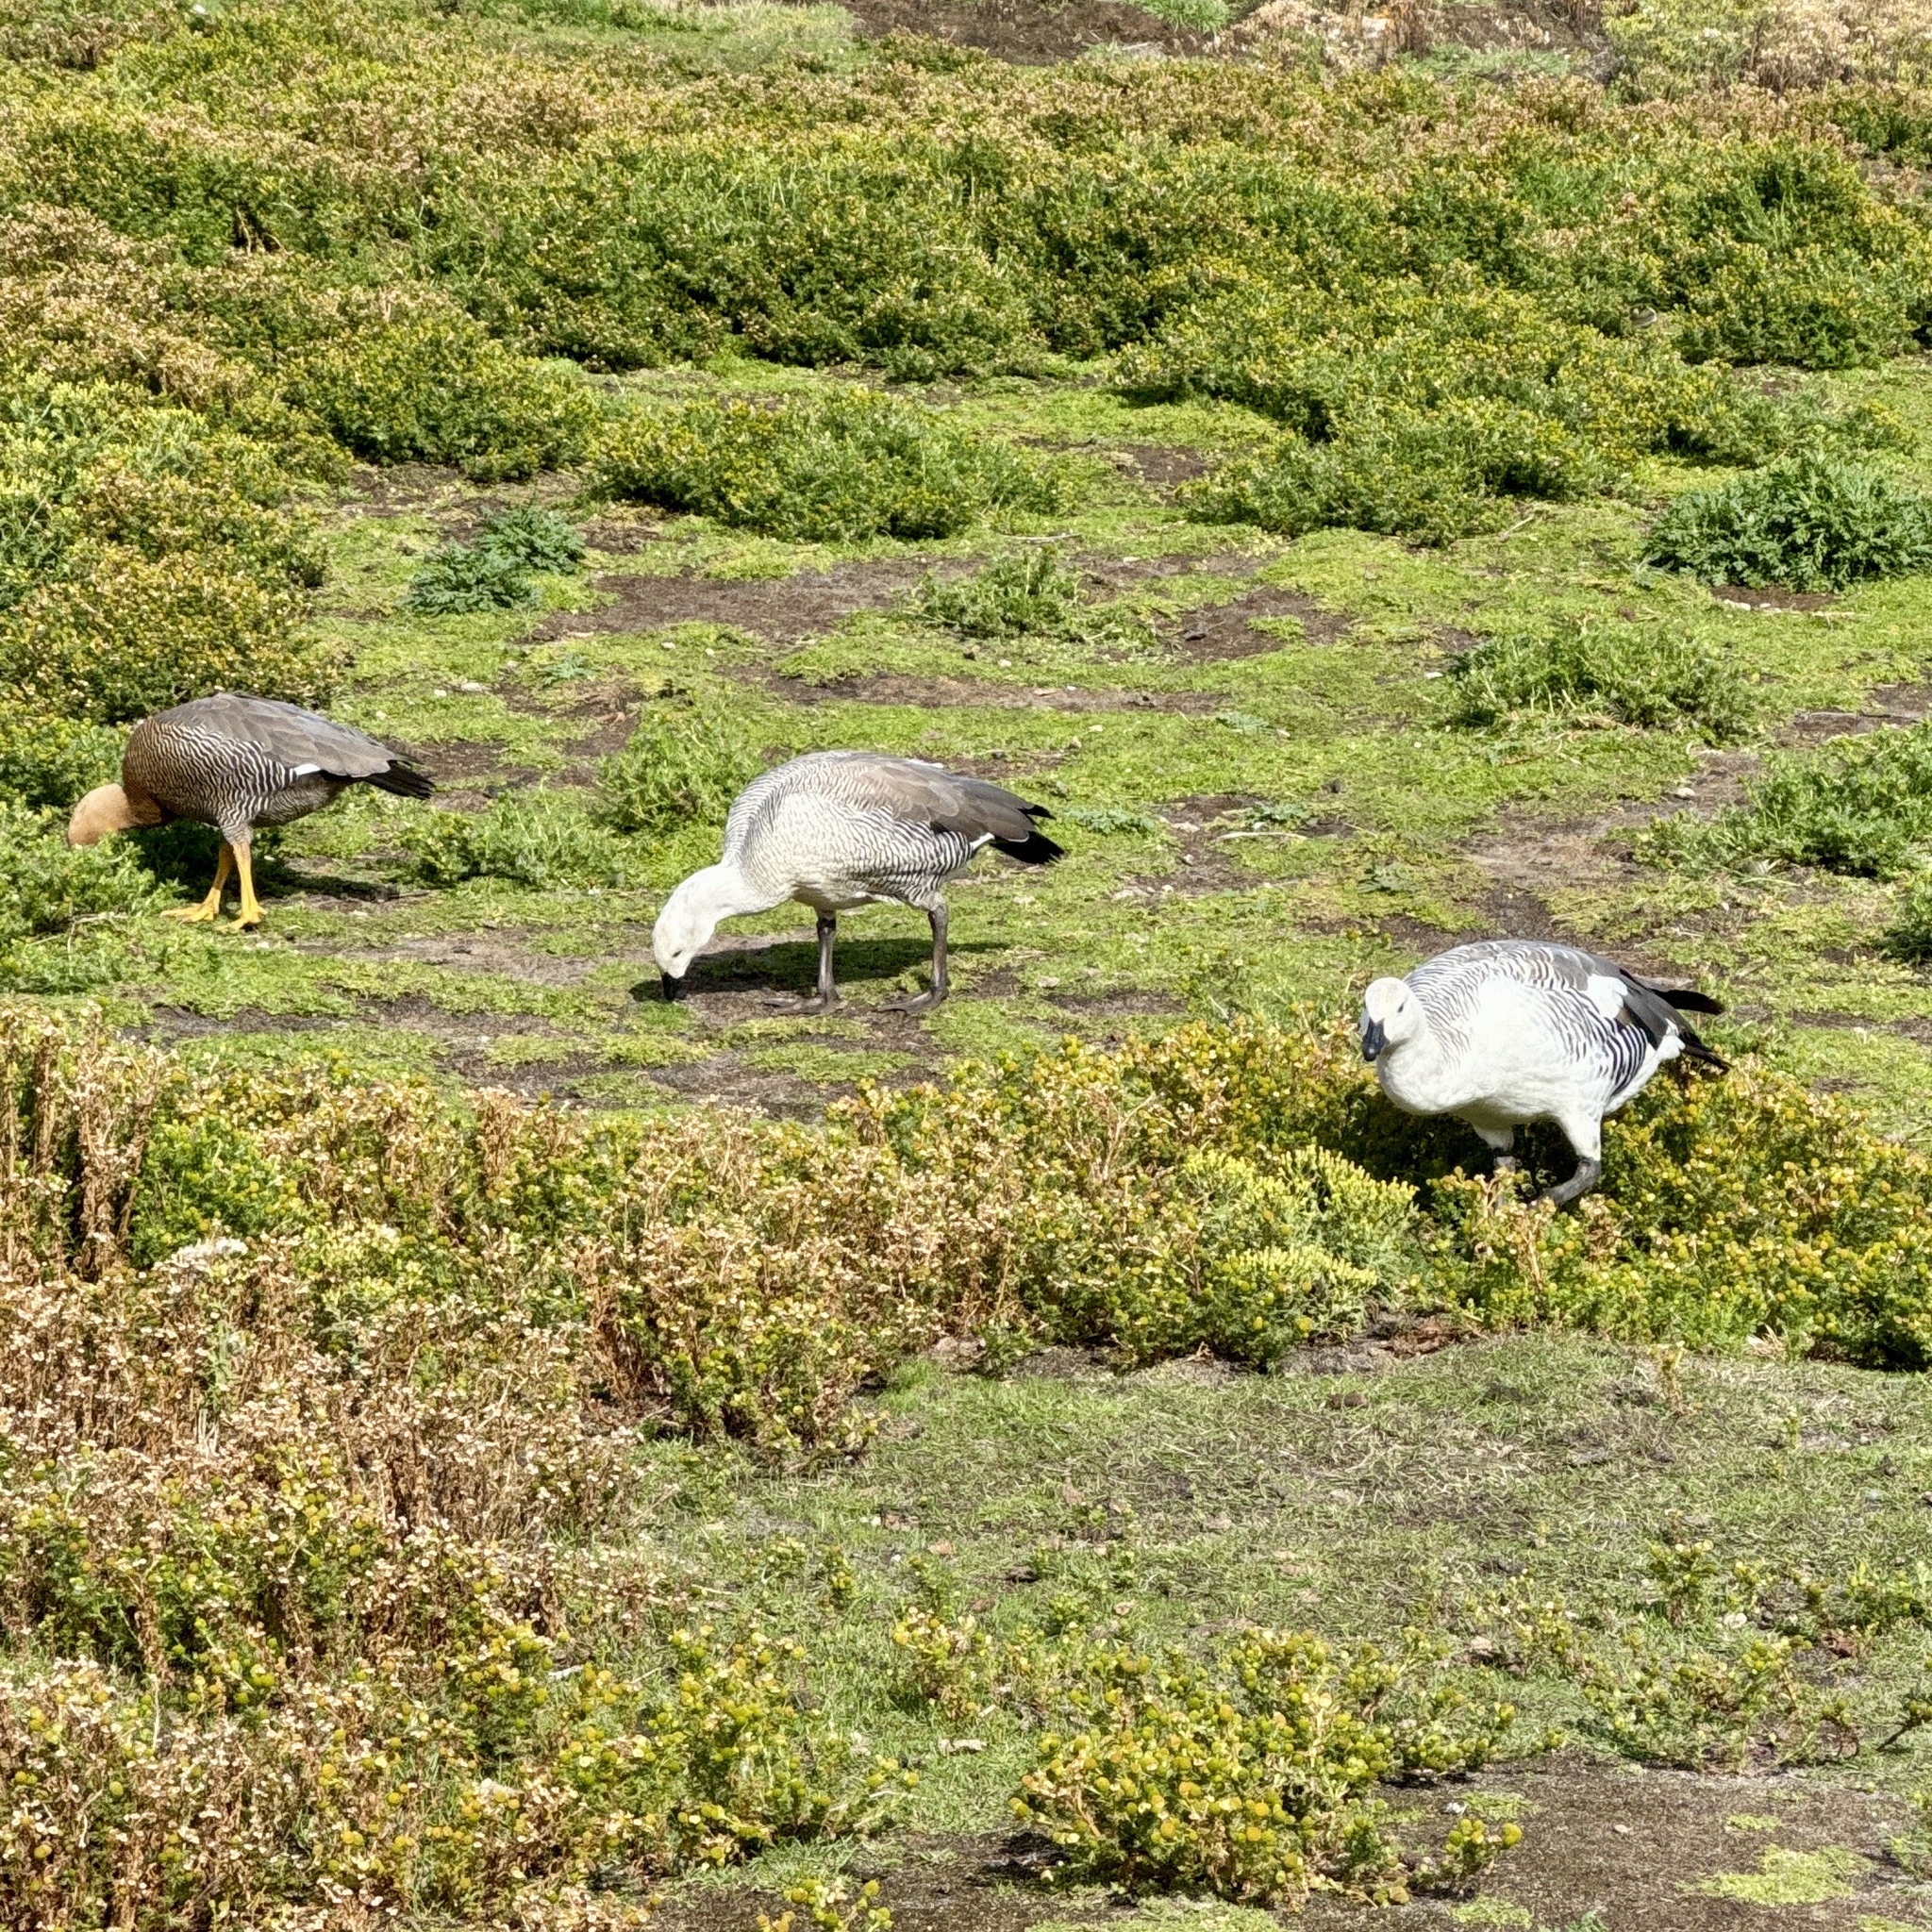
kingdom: Animalia
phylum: Chordata
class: Aves
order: Anseriformes
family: Anatidae
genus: Chloephaga
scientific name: Chloephaga picta
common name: Upland goose
